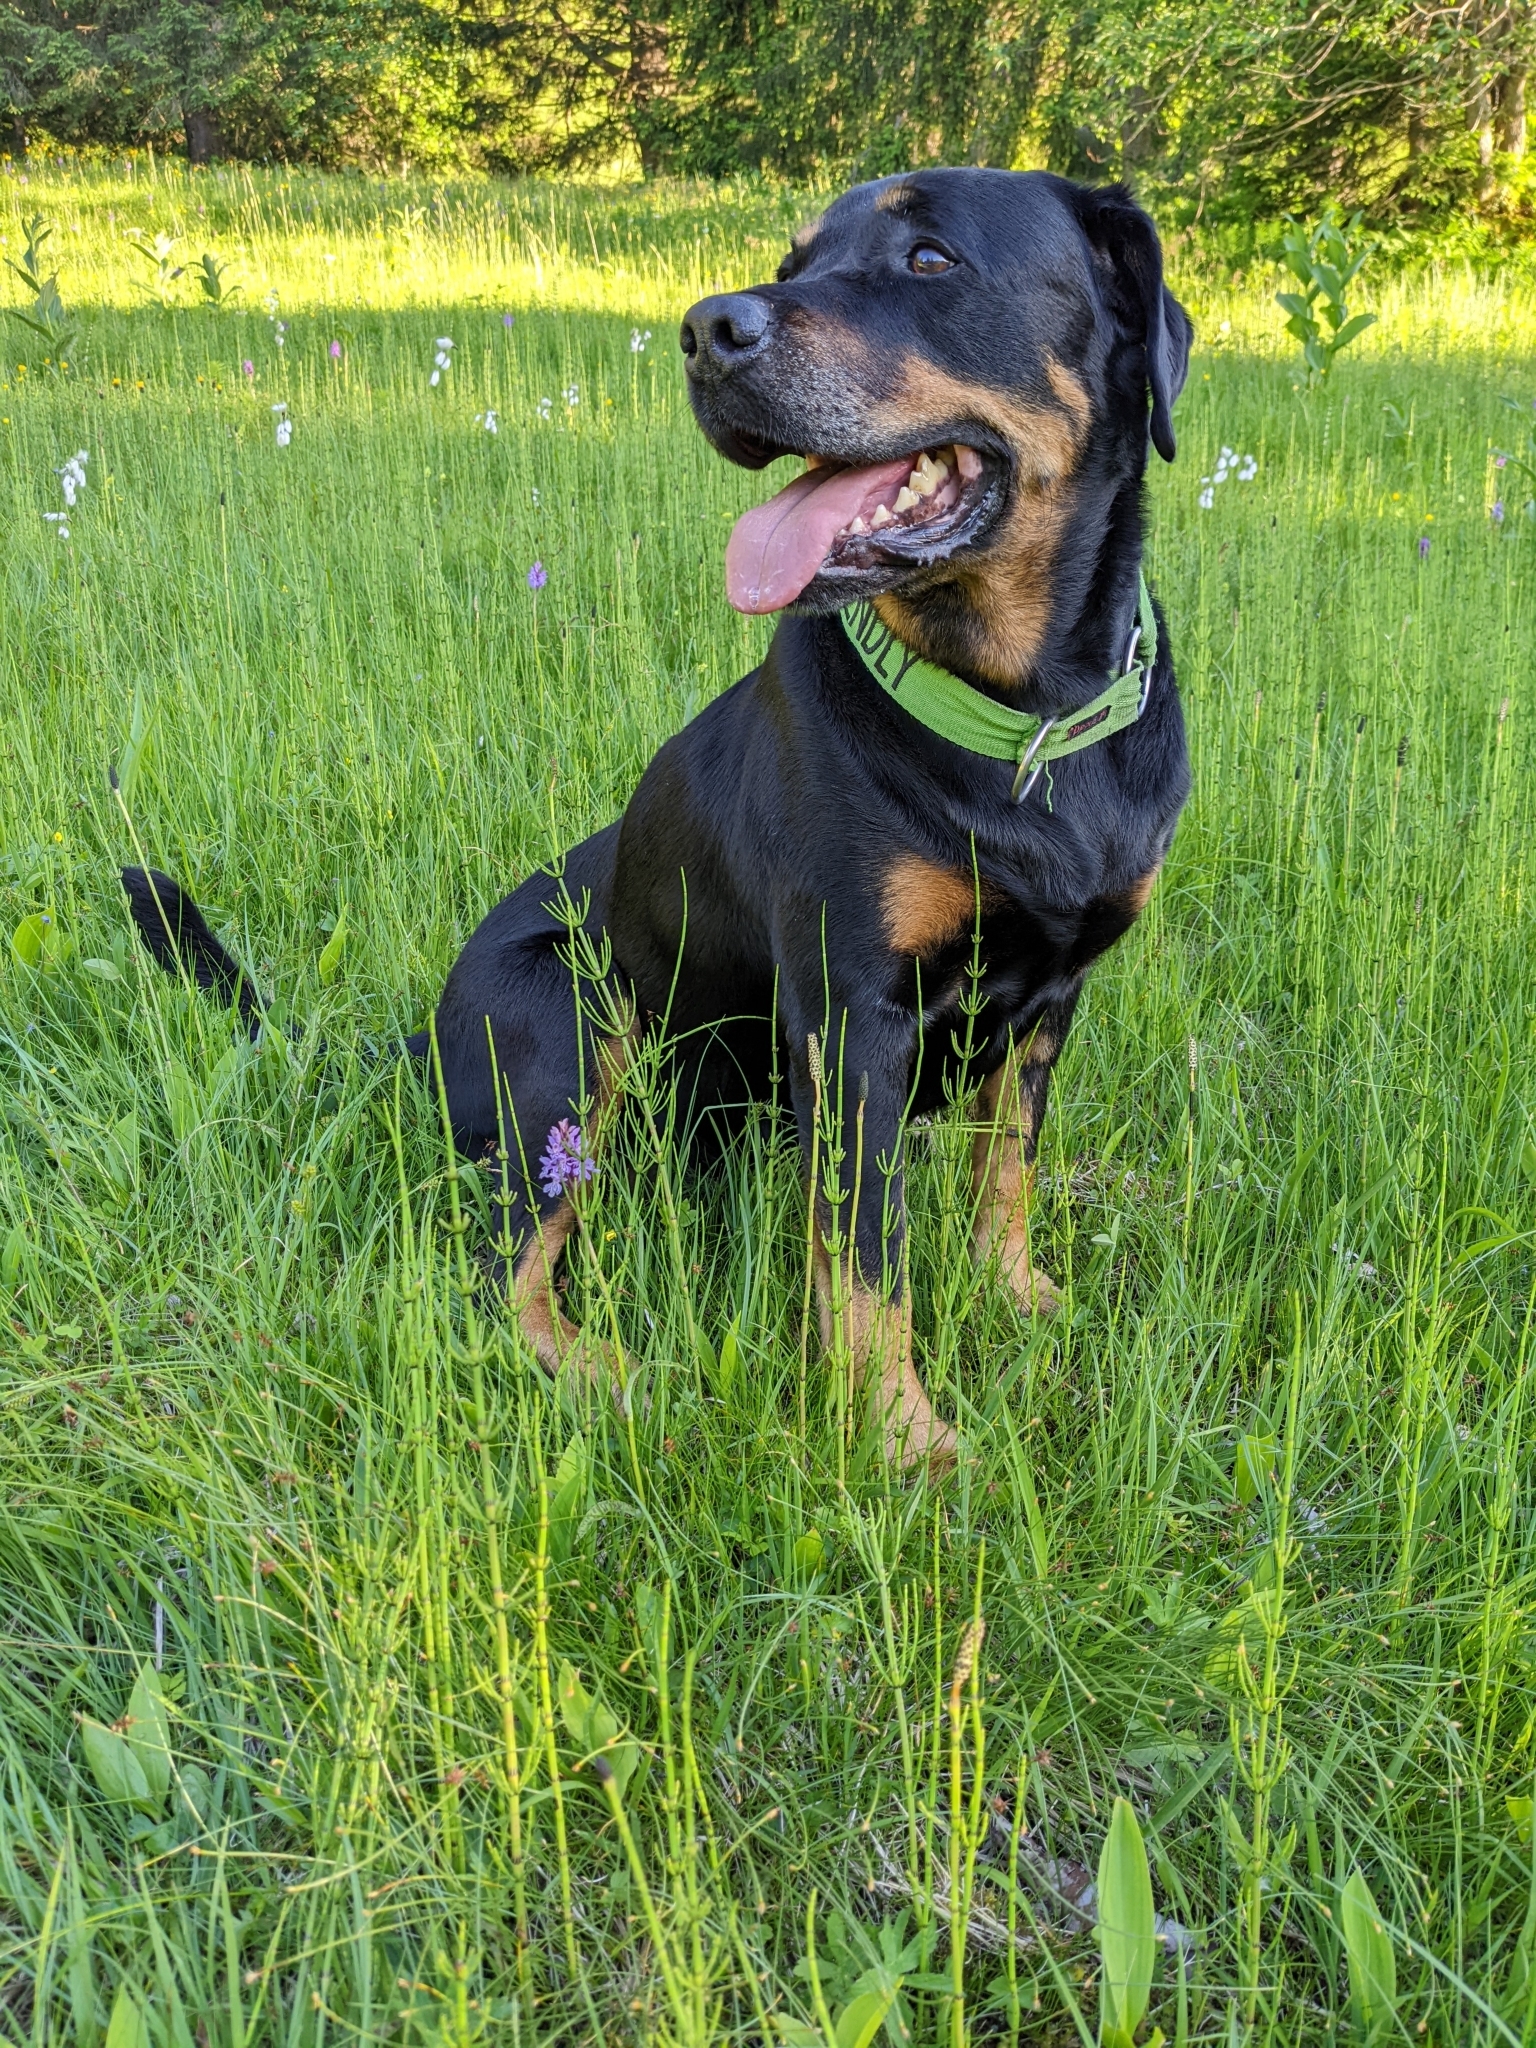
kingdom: Plantae
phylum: Tracheophyta
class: Polypodiopsida
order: Equisetales
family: Equisetaceae
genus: Equisetum
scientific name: Equisetum palustre
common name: Marsh horsetail
